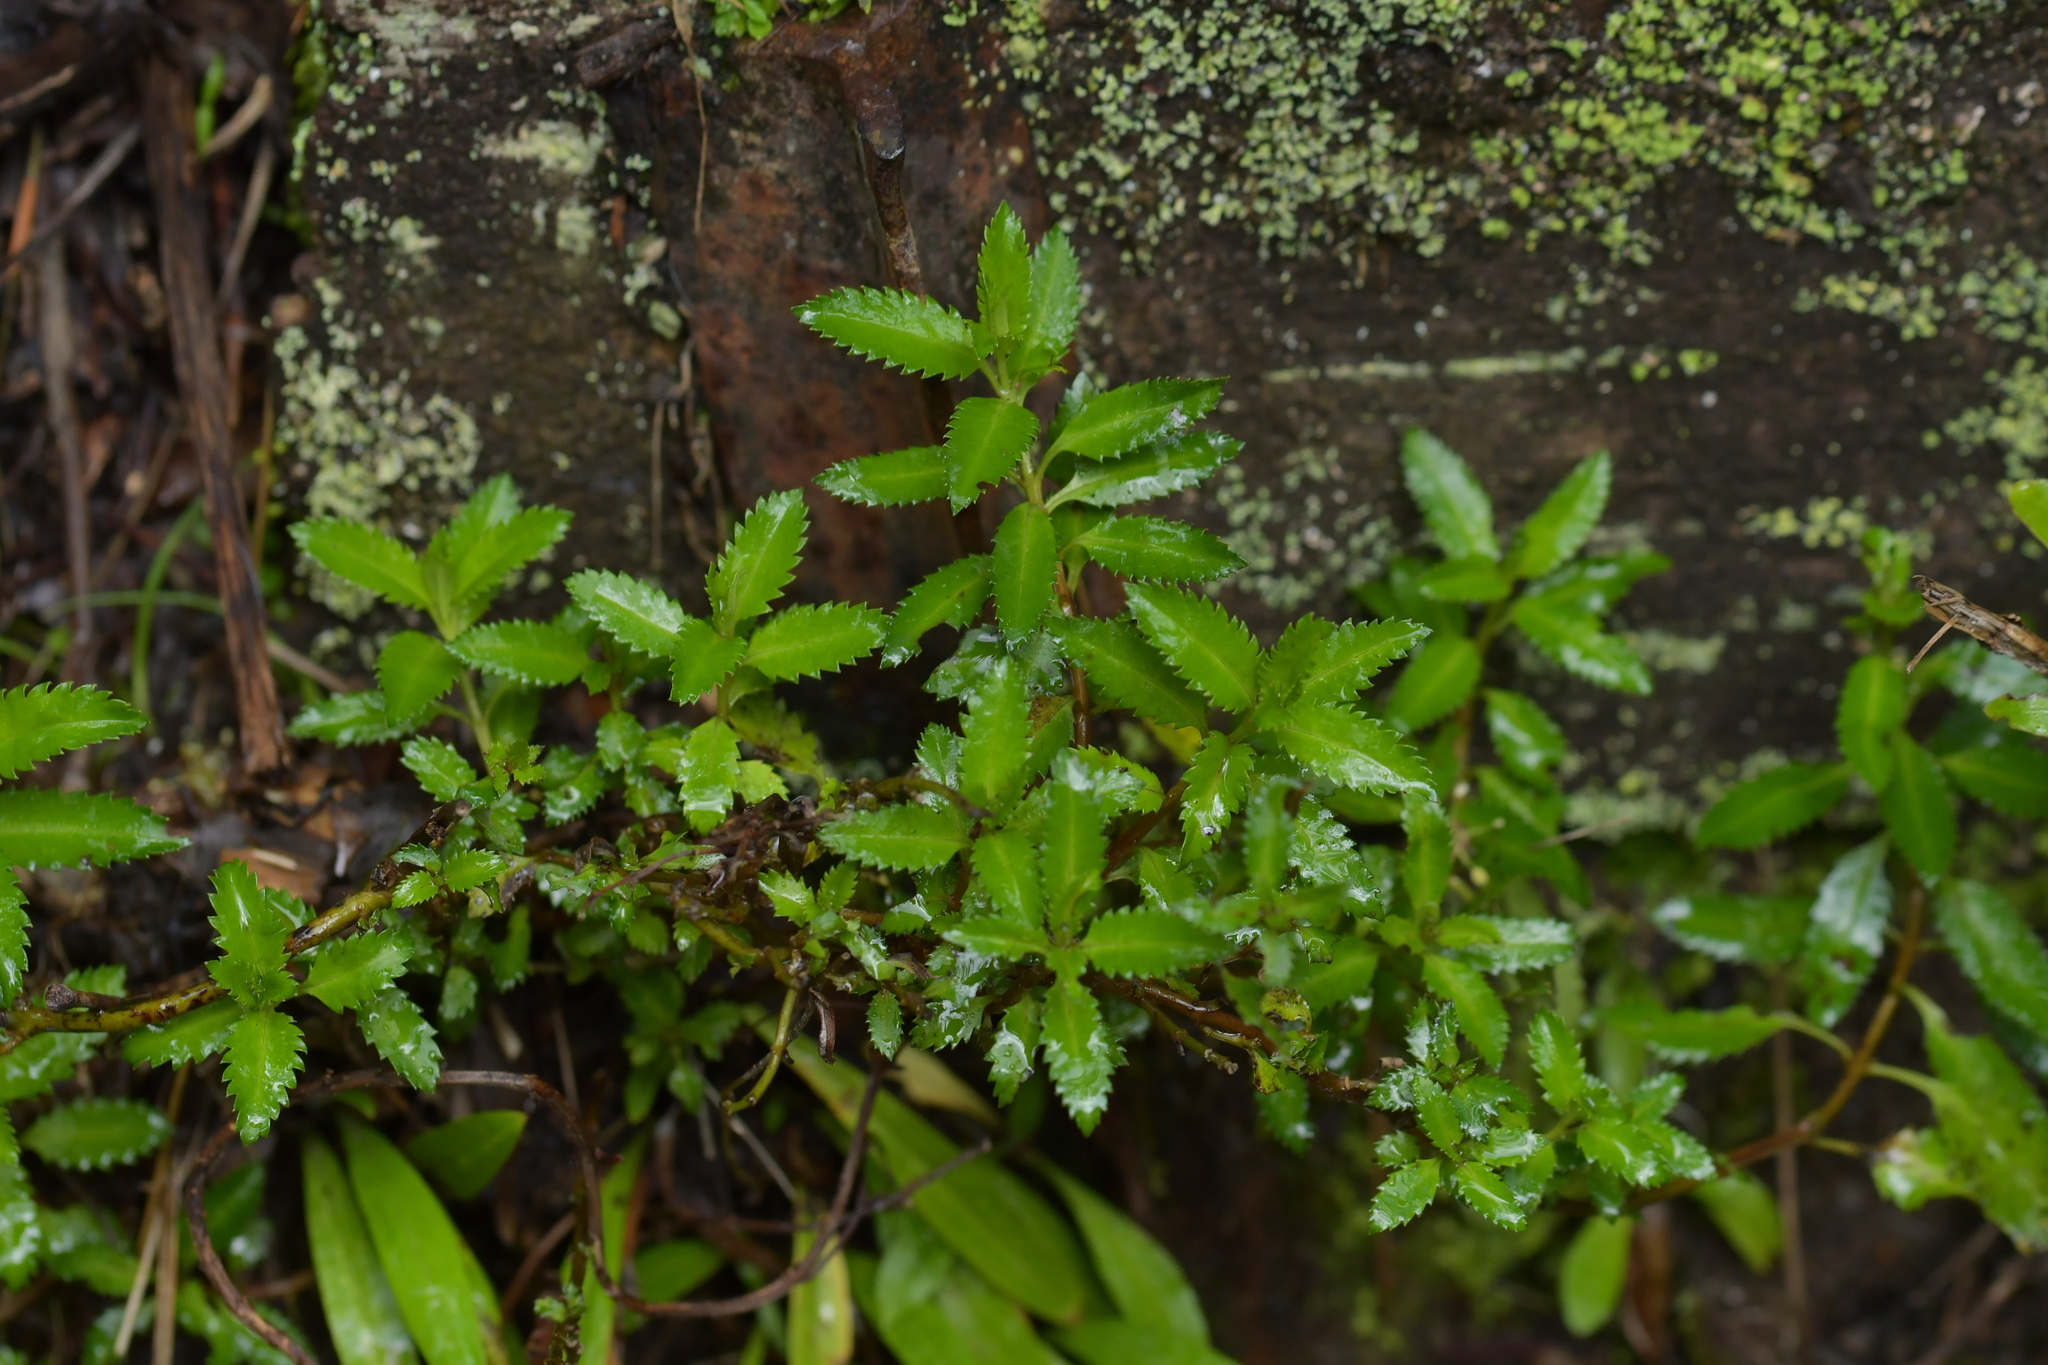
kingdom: Plantae
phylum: Tracheophyta
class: Magnoliopsida
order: Saxifragales
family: Haloragaceae
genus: Haloragis
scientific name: Haloragis erecta
